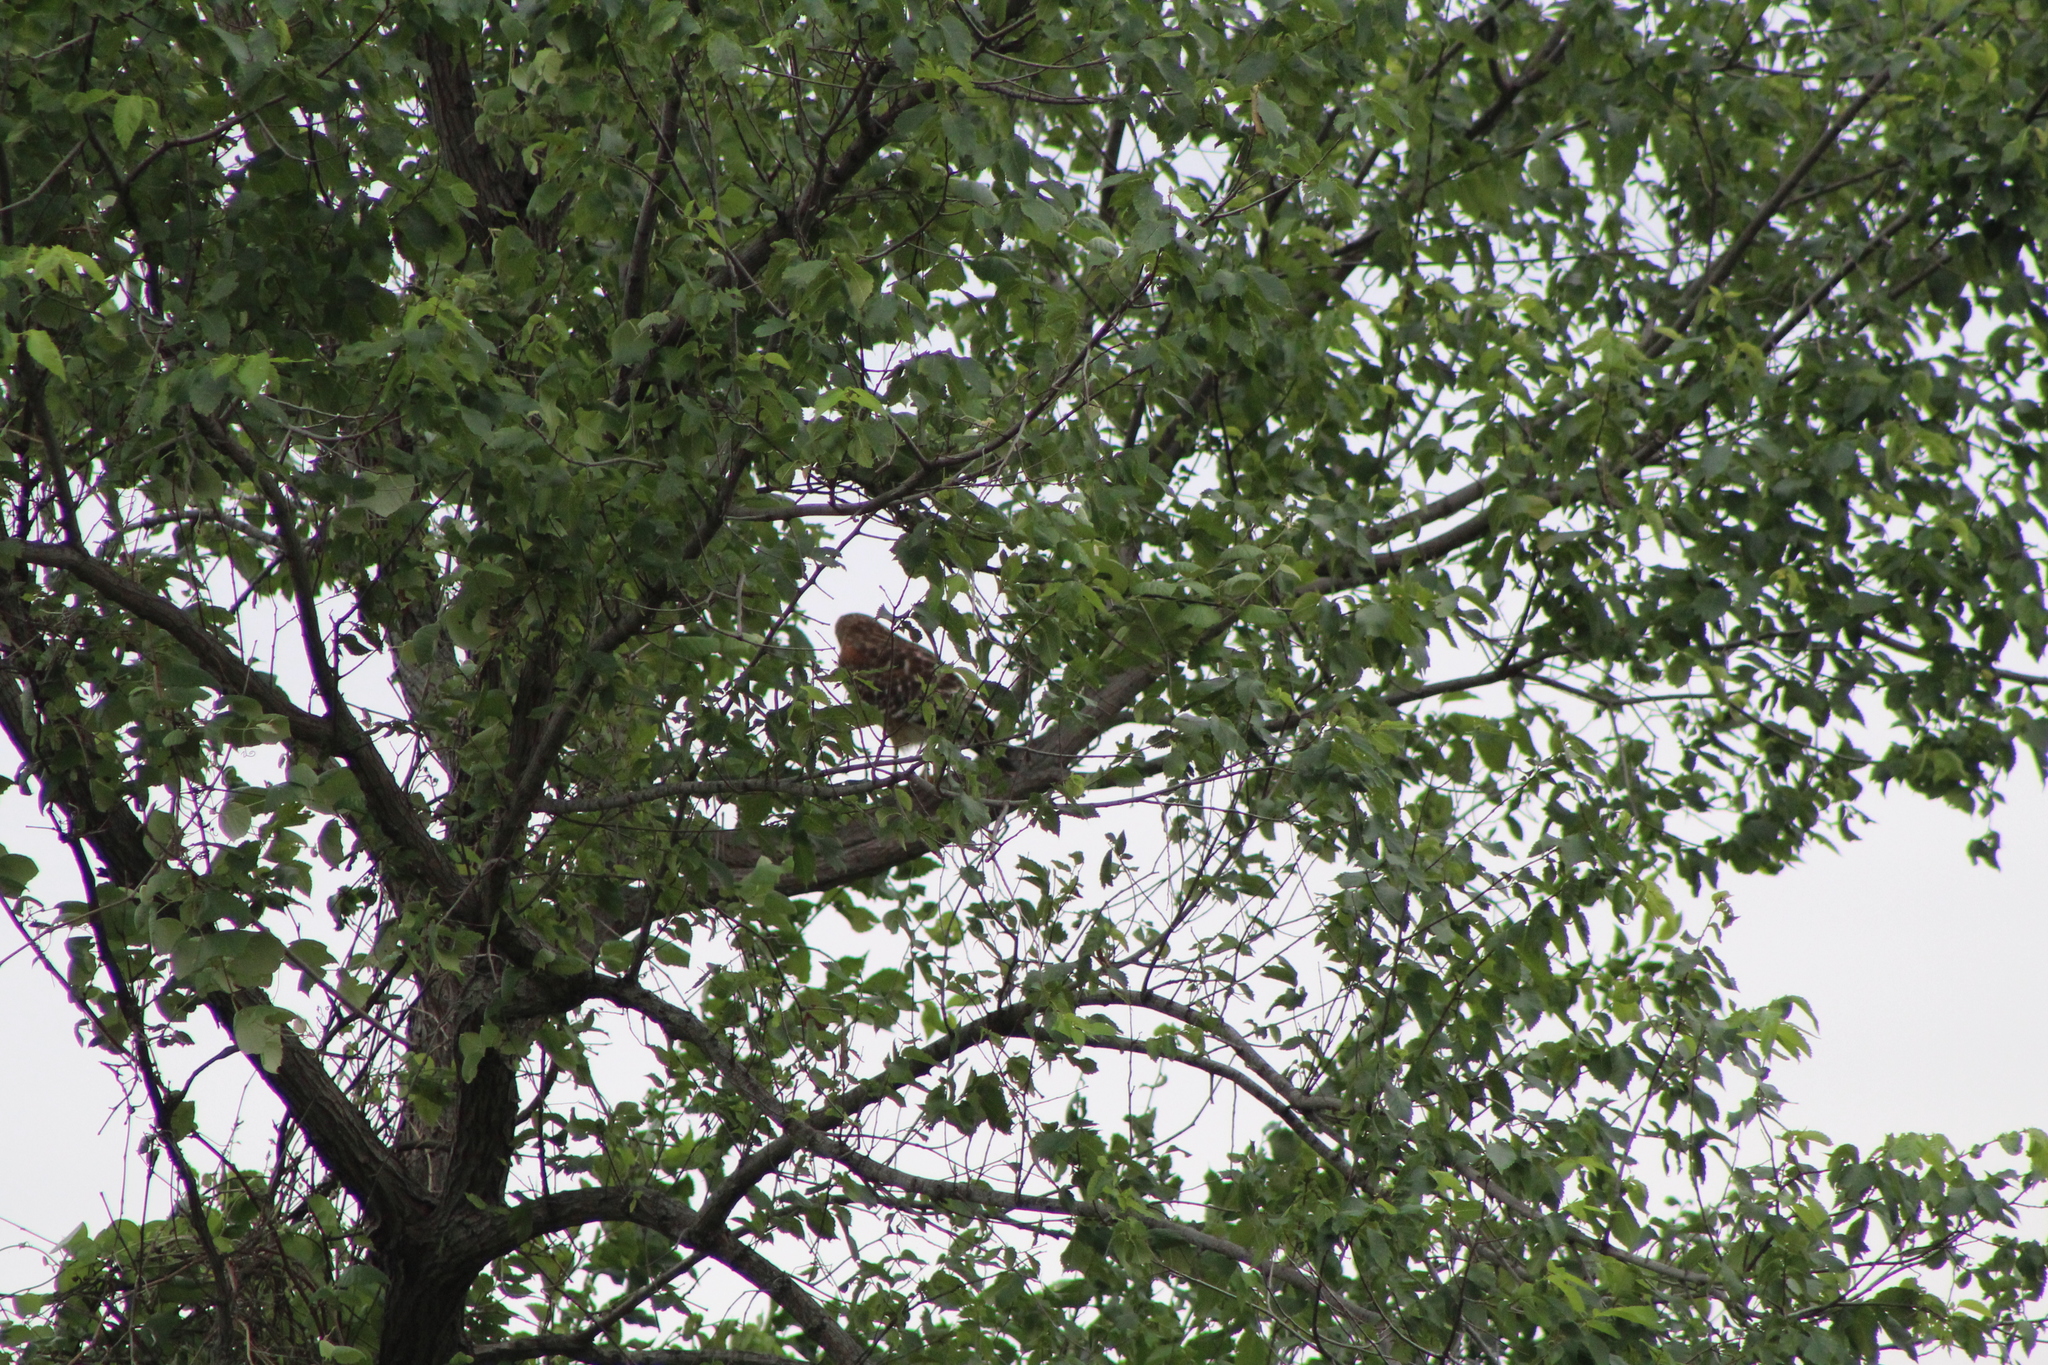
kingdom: Animalia
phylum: Chordata
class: Aves
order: Accipitriformes
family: Accipitridae
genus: Buteo
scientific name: Buteo lineatus
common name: Red-shouldered hawk
